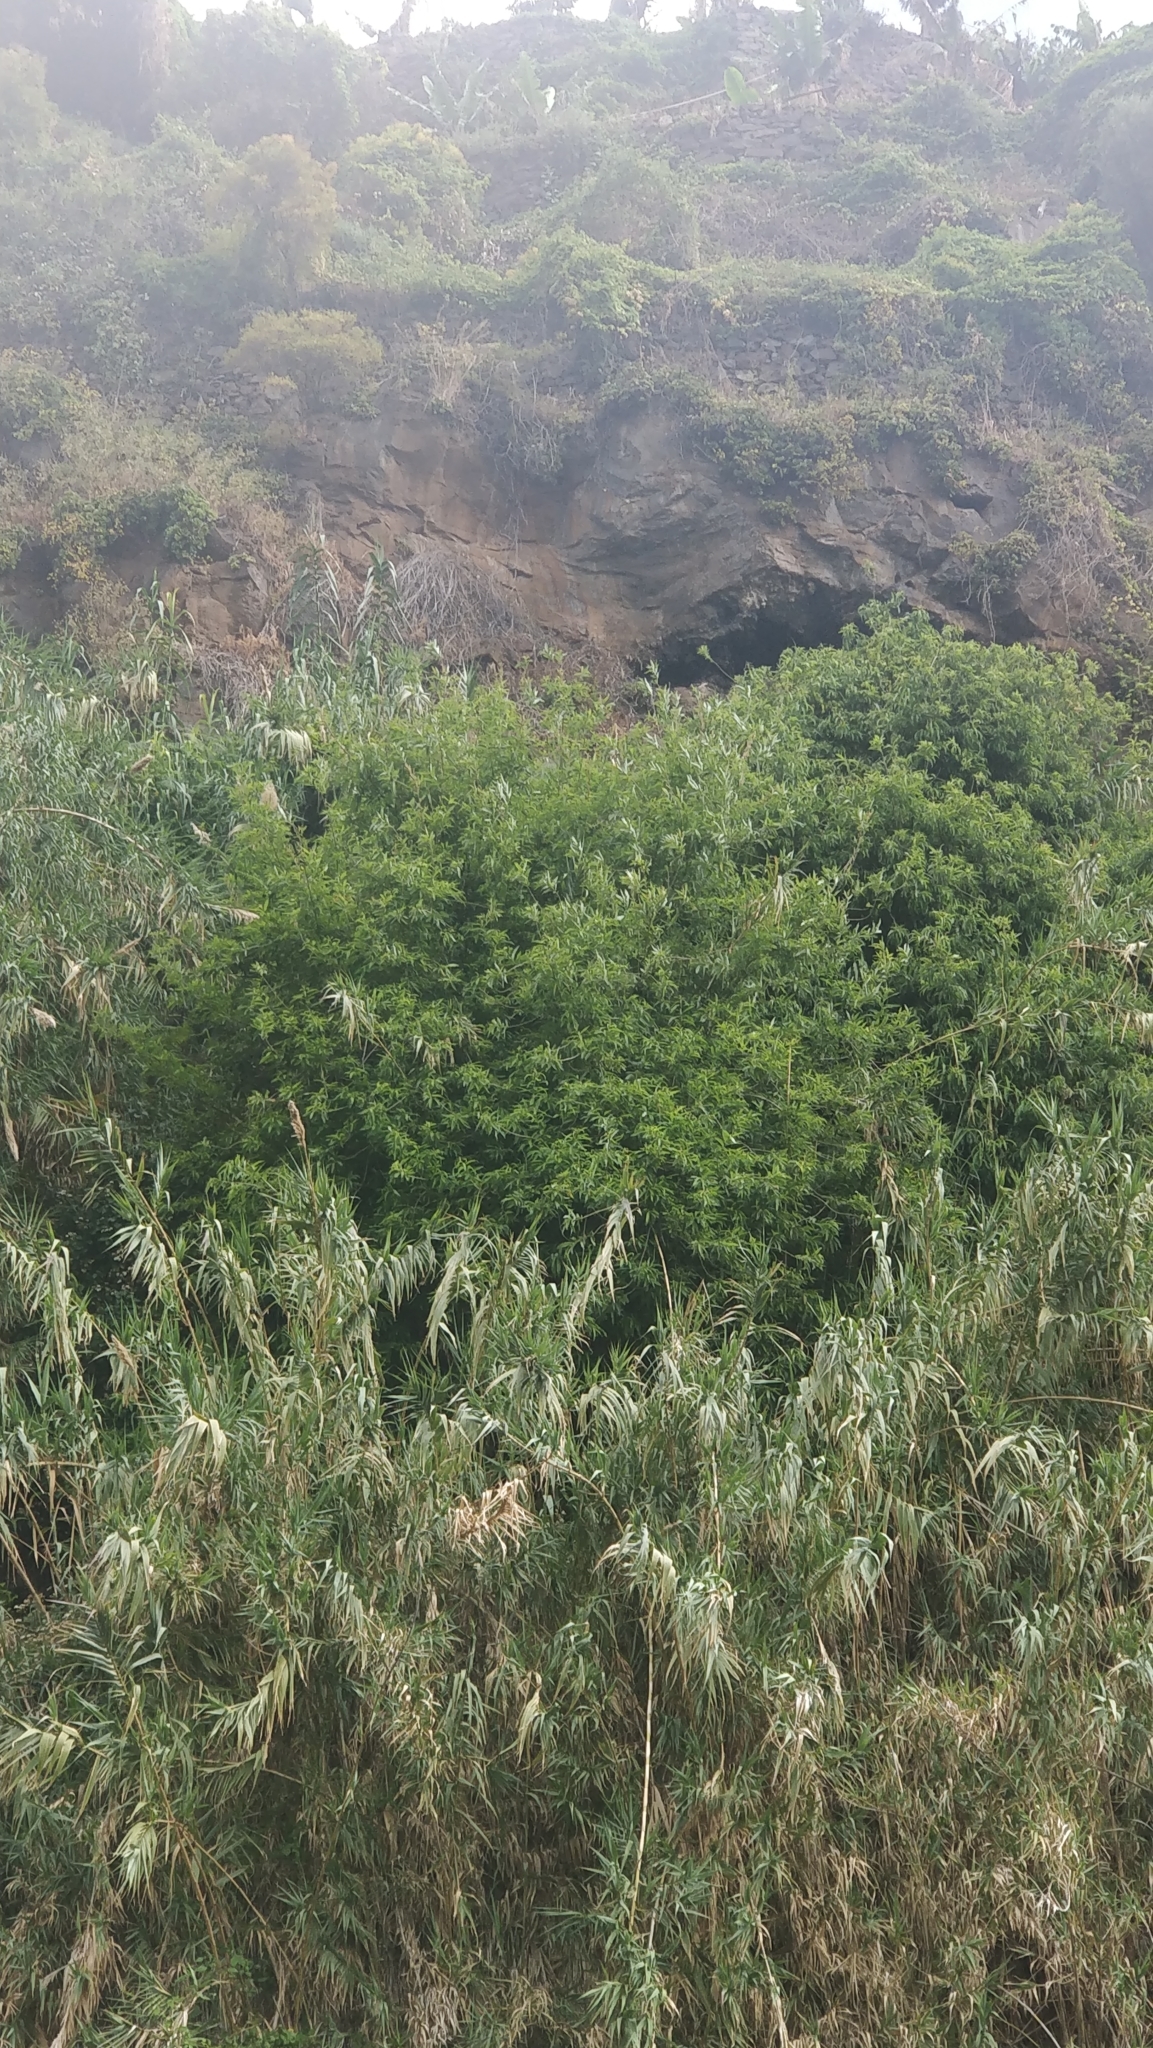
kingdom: Plantae
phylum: Tracheophyta
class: Magnoliopsida
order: Malpighiales
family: Salicaceae
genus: Salix
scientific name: Salix canariensis
